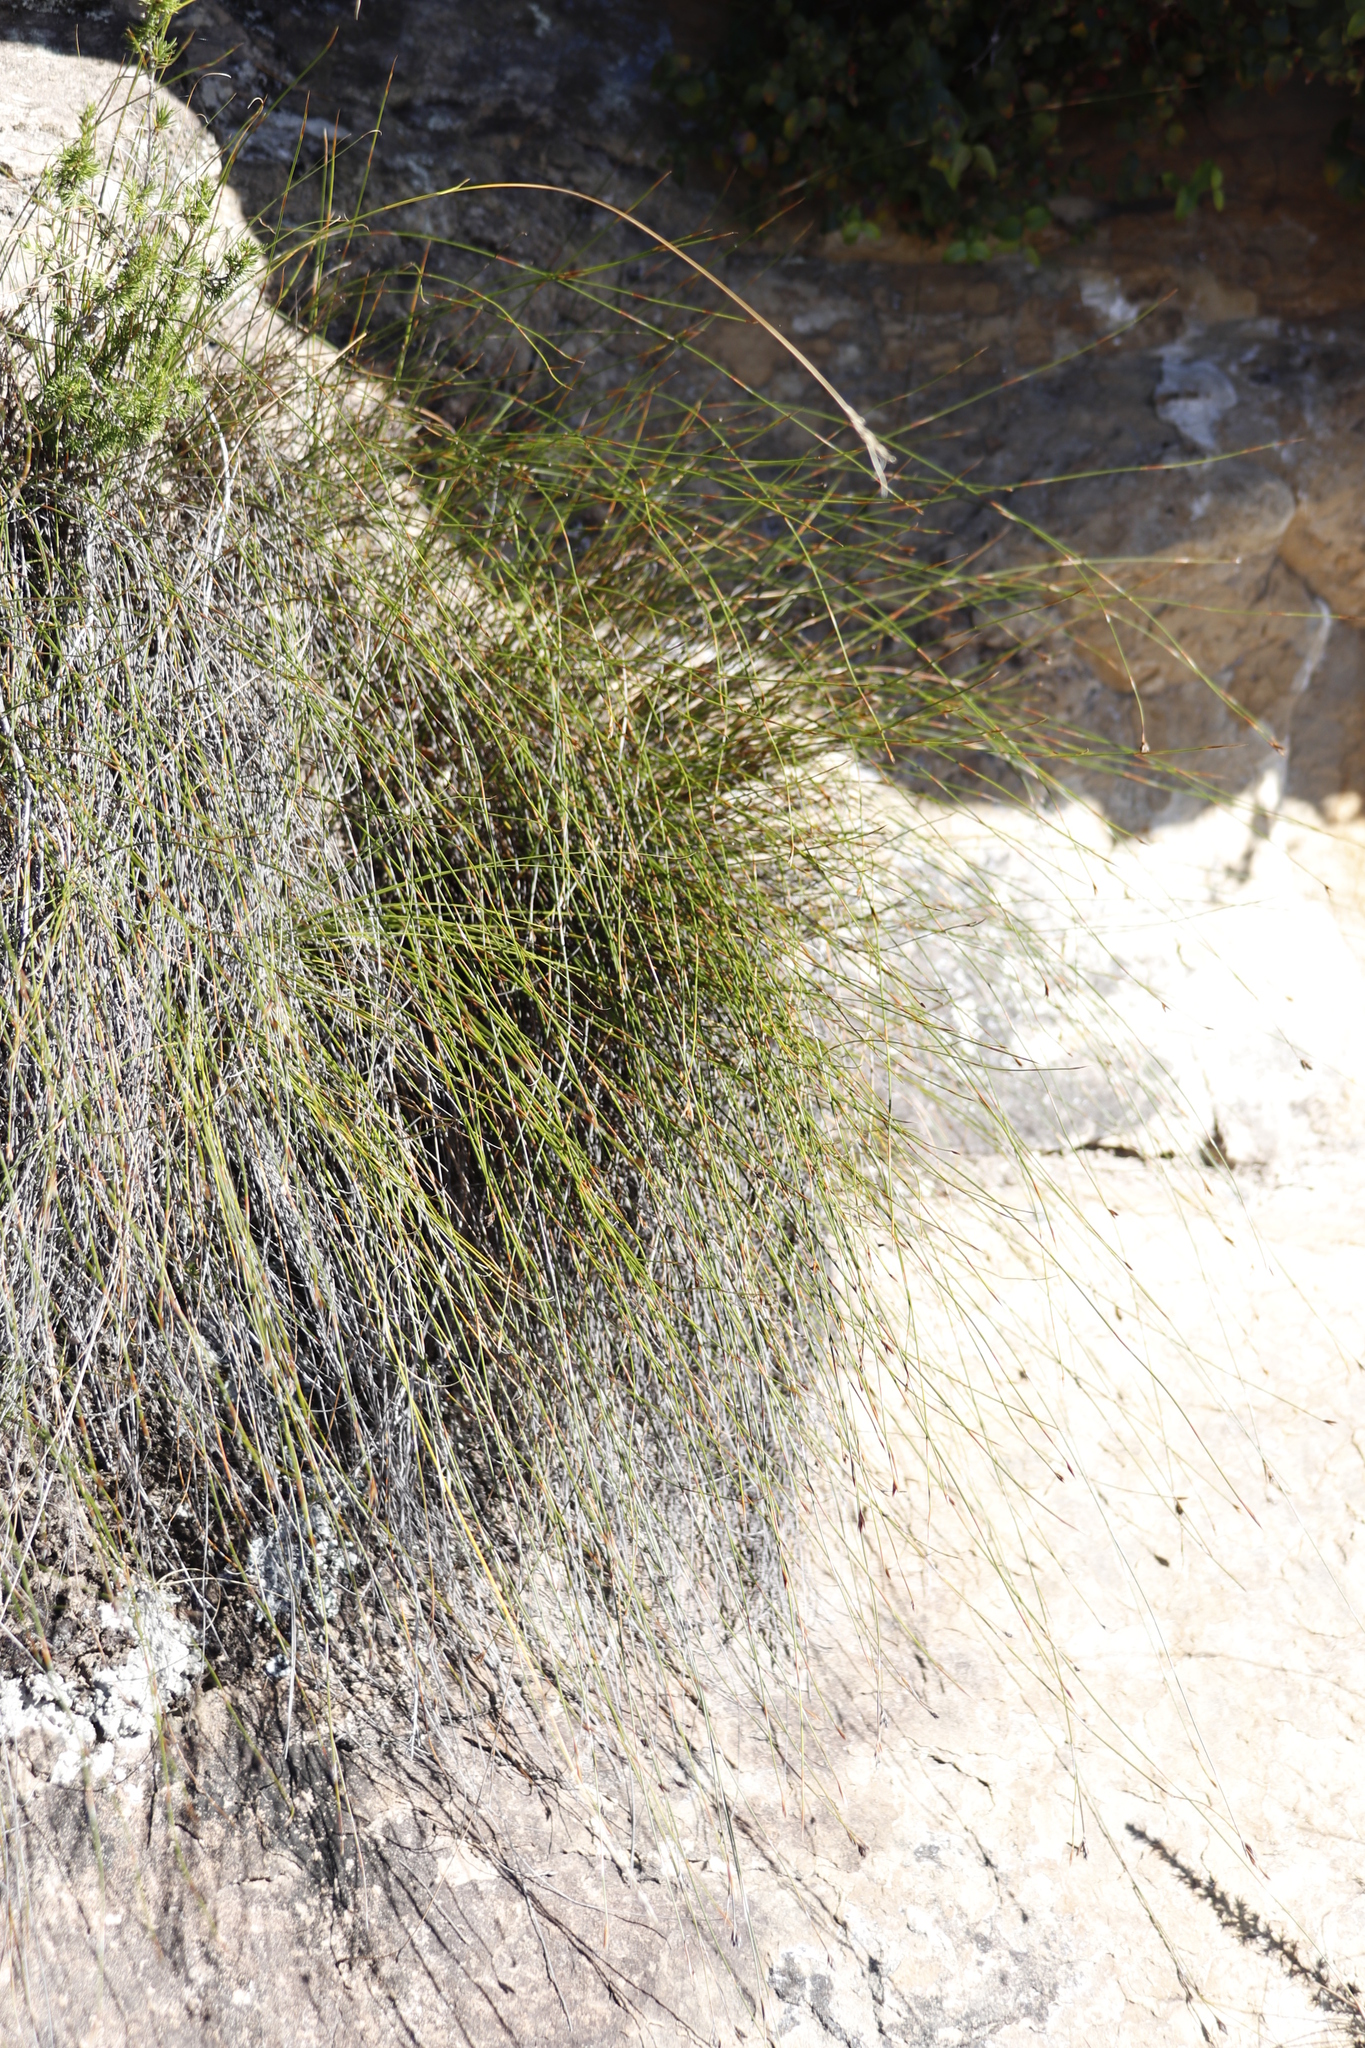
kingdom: Plantae
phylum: Tracheophyta
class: Liliopsida
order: Poales
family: Restionaceae
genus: Restio
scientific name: Restio schoenoides
